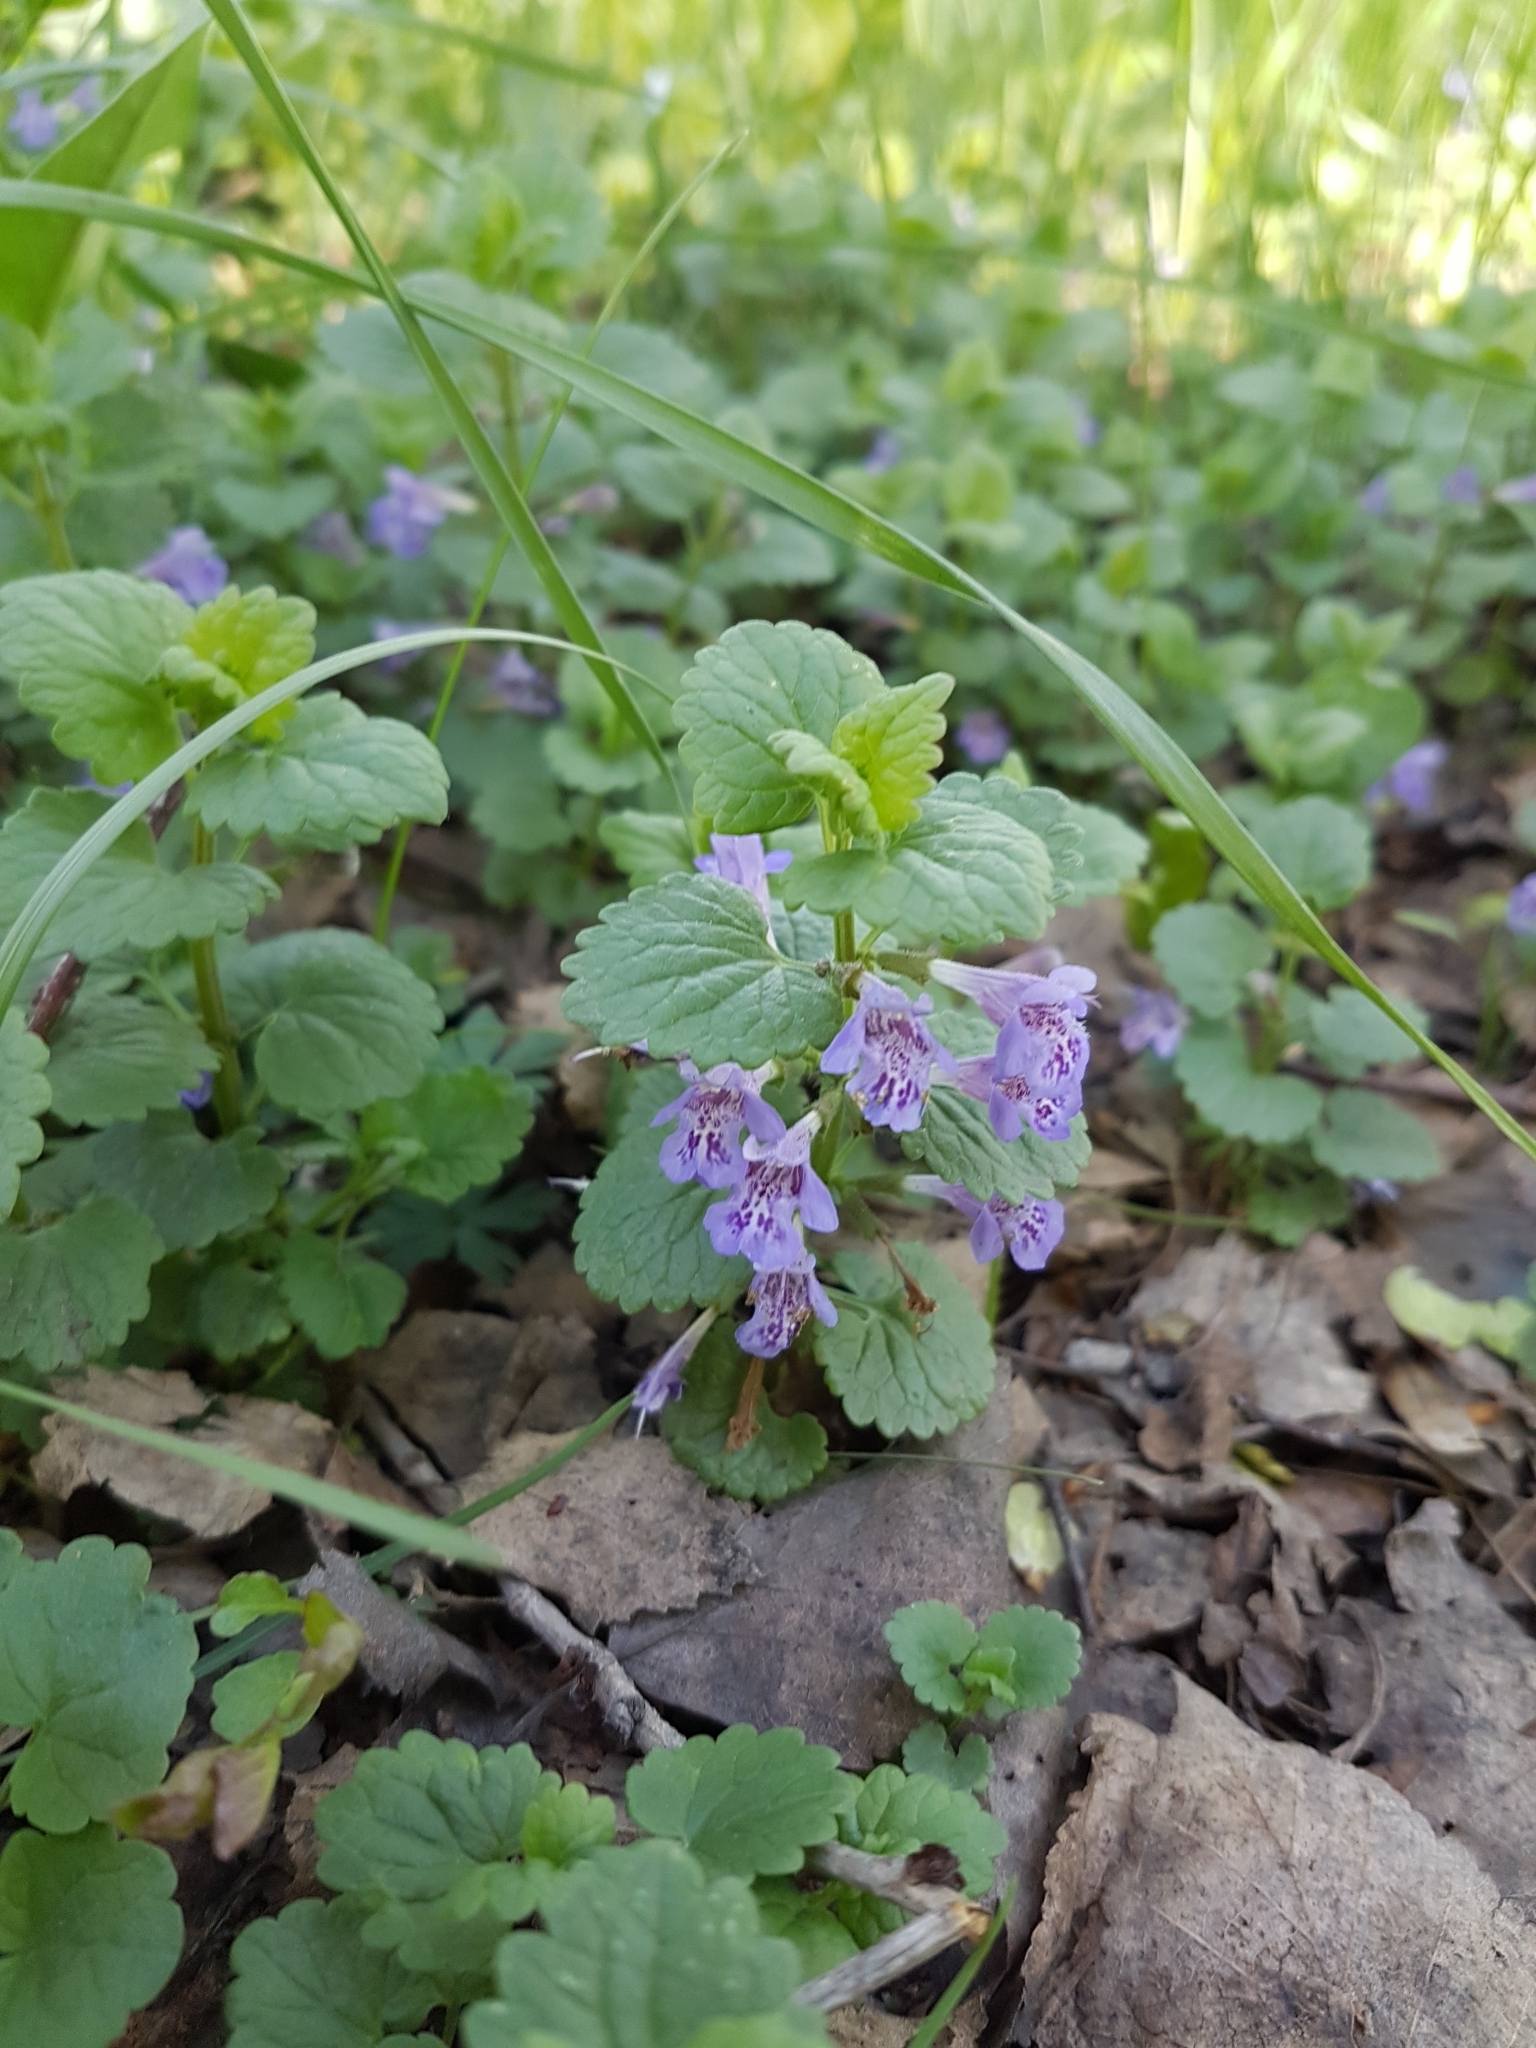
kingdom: Plantae
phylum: Tracheophyta
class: Magnoliopsida
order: Lamiales
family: Lamiaceae
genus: Glechoma
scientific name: Glechoma hederacea
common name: Ground ivy
